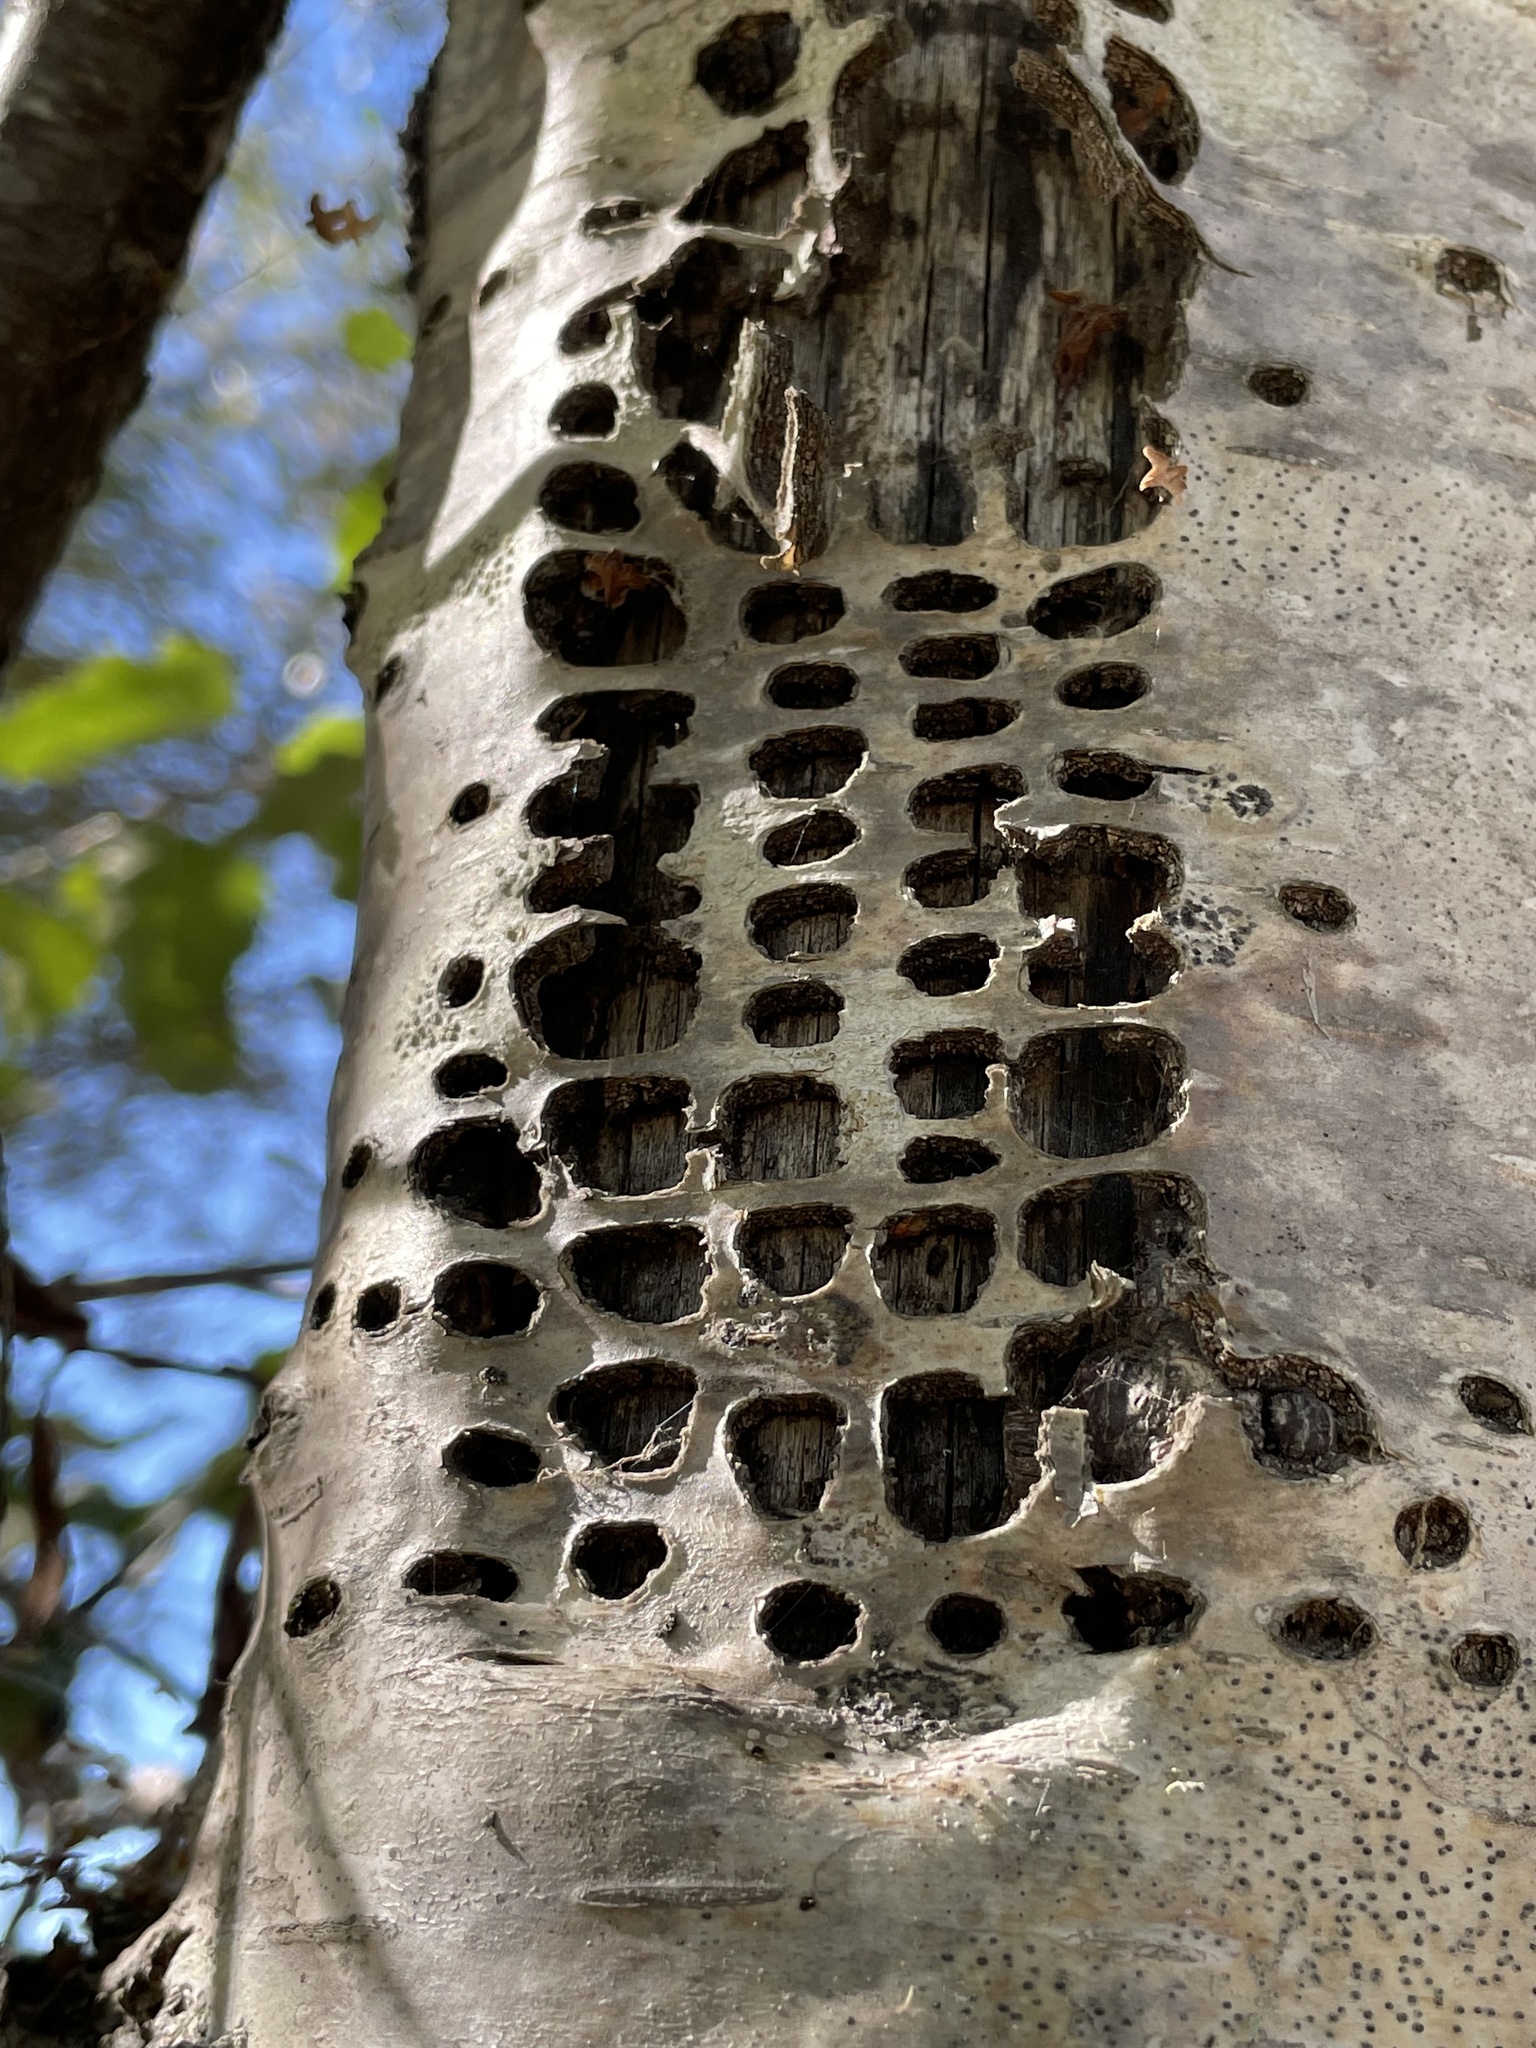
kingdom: Animalia
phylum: Chordata
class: Aves
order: Piciformes
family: Picidae
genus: Sphyrapicus
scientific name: Sphyrapicus
